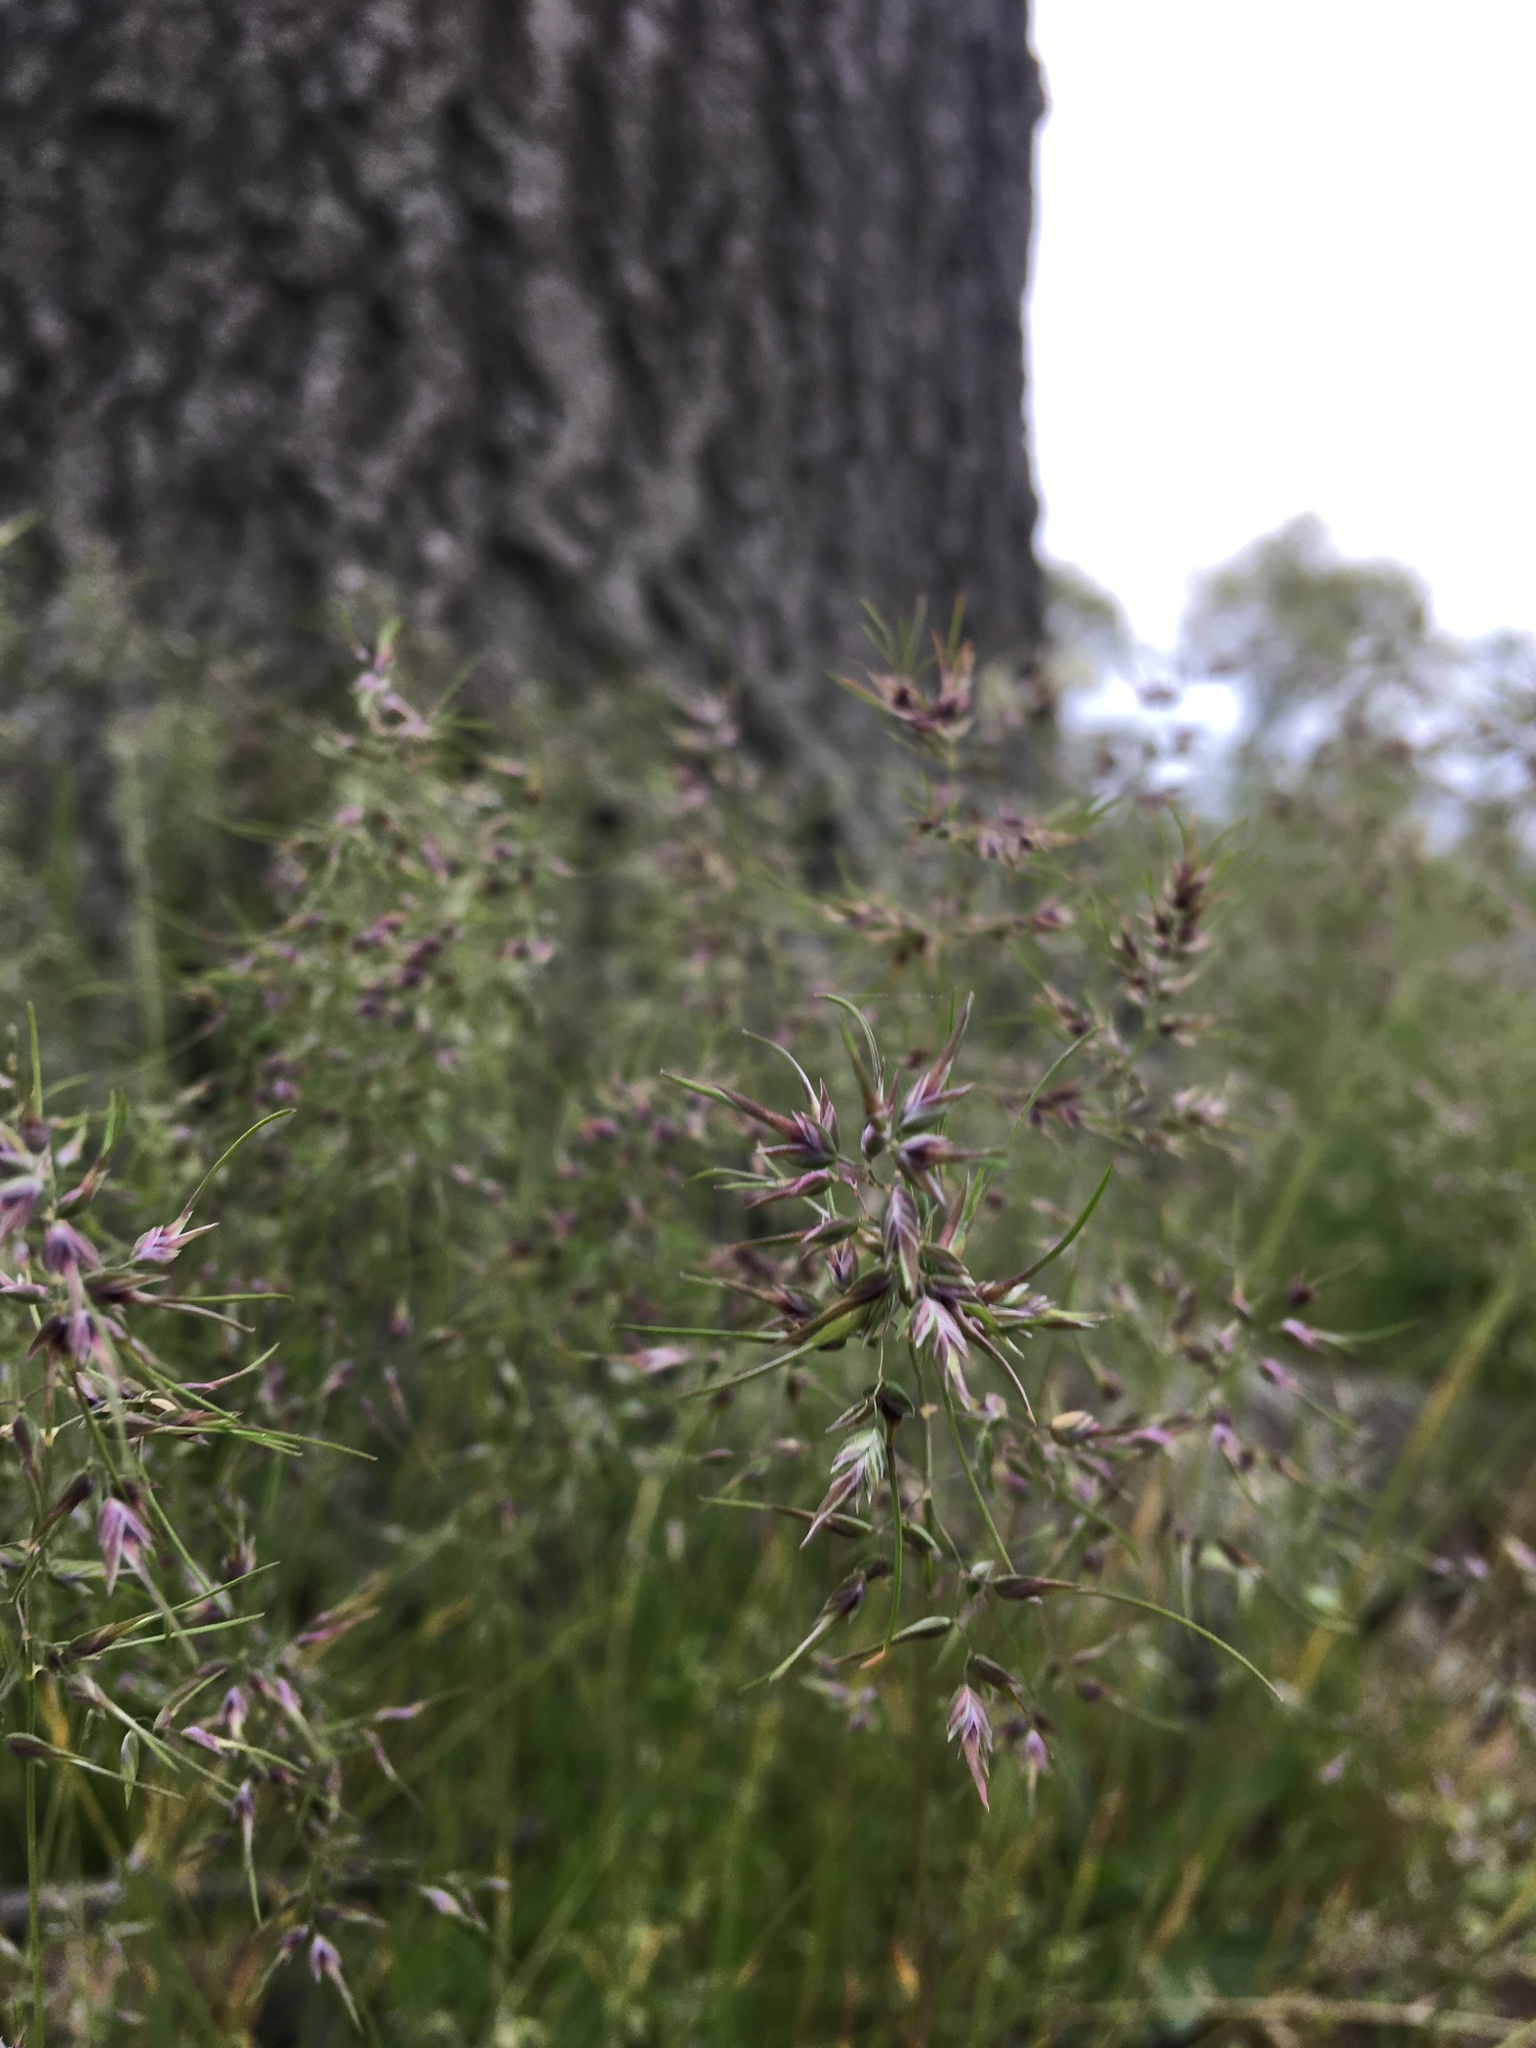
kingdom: Plantae
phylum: Tracheophyta
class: Liliopsida
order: Poales
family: Poaceae
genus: Poa
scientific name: Poa bulbosa
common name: Bulbous bluegrass
